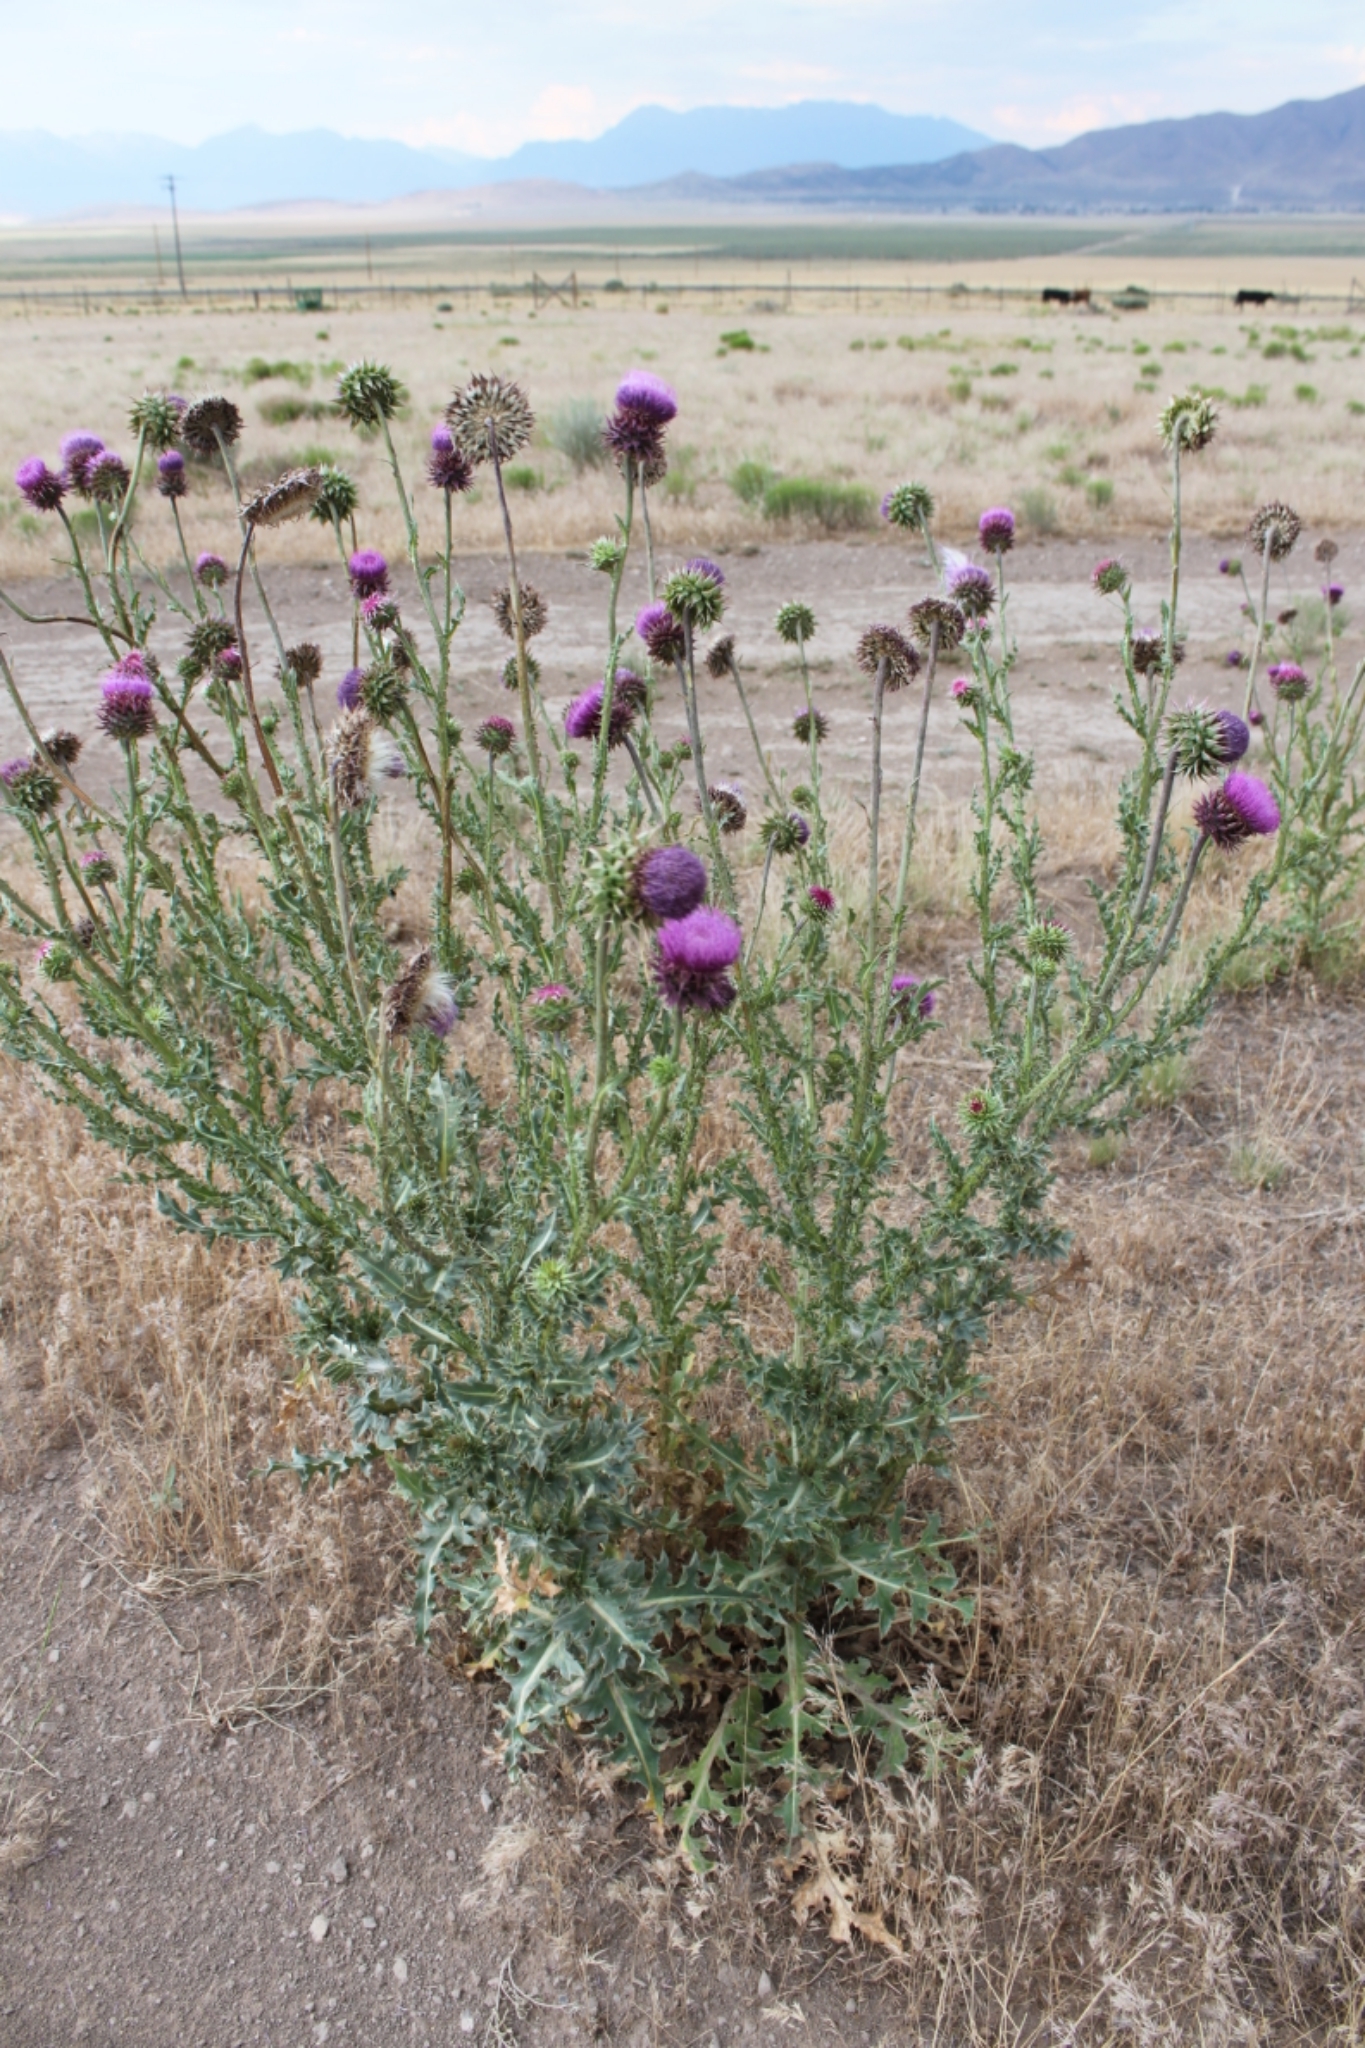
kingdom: Plantae
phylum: Tracheophyta
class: Magnoliopsida
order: Asterales
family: Asteraceae
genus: Carduus
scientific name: Carduus nutans
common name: Musk thistle
